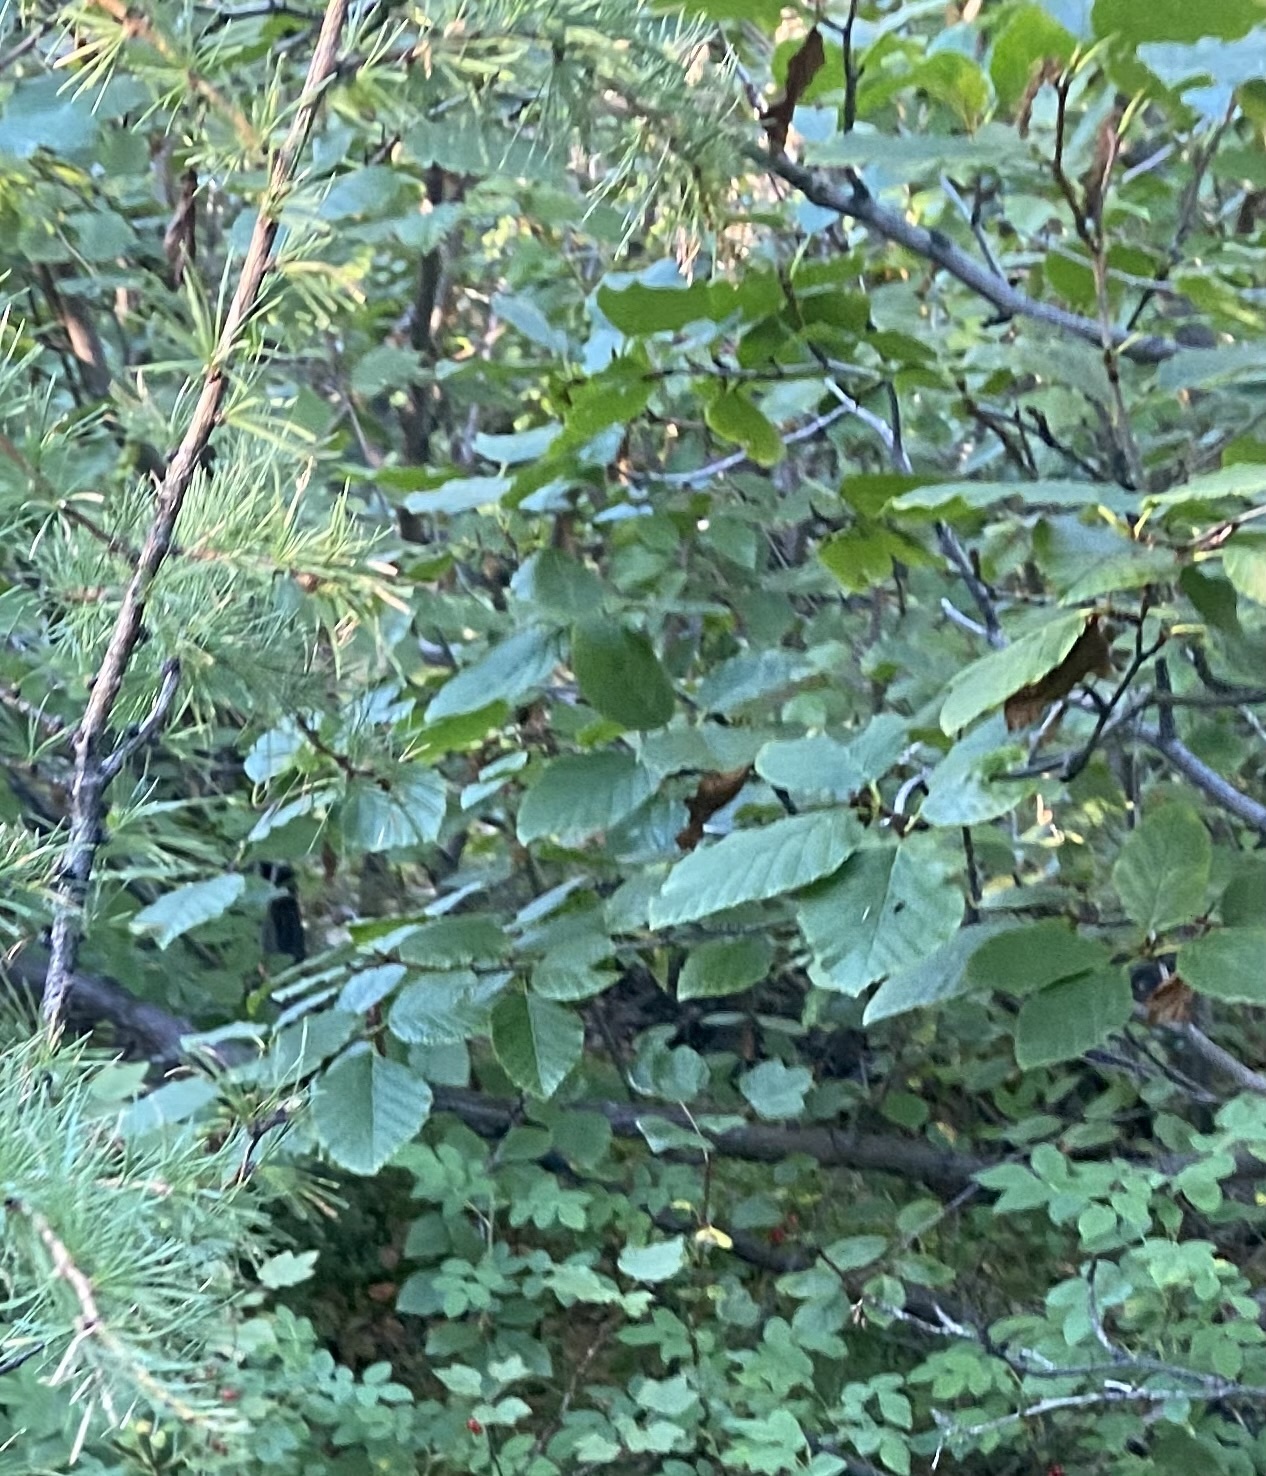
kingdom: Plantae
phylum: Tracheophyta
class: Magnoliopsida
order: Fagales
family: Betulaceae
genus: Alnus
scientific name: Alnus alnobetula
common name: Green alder
